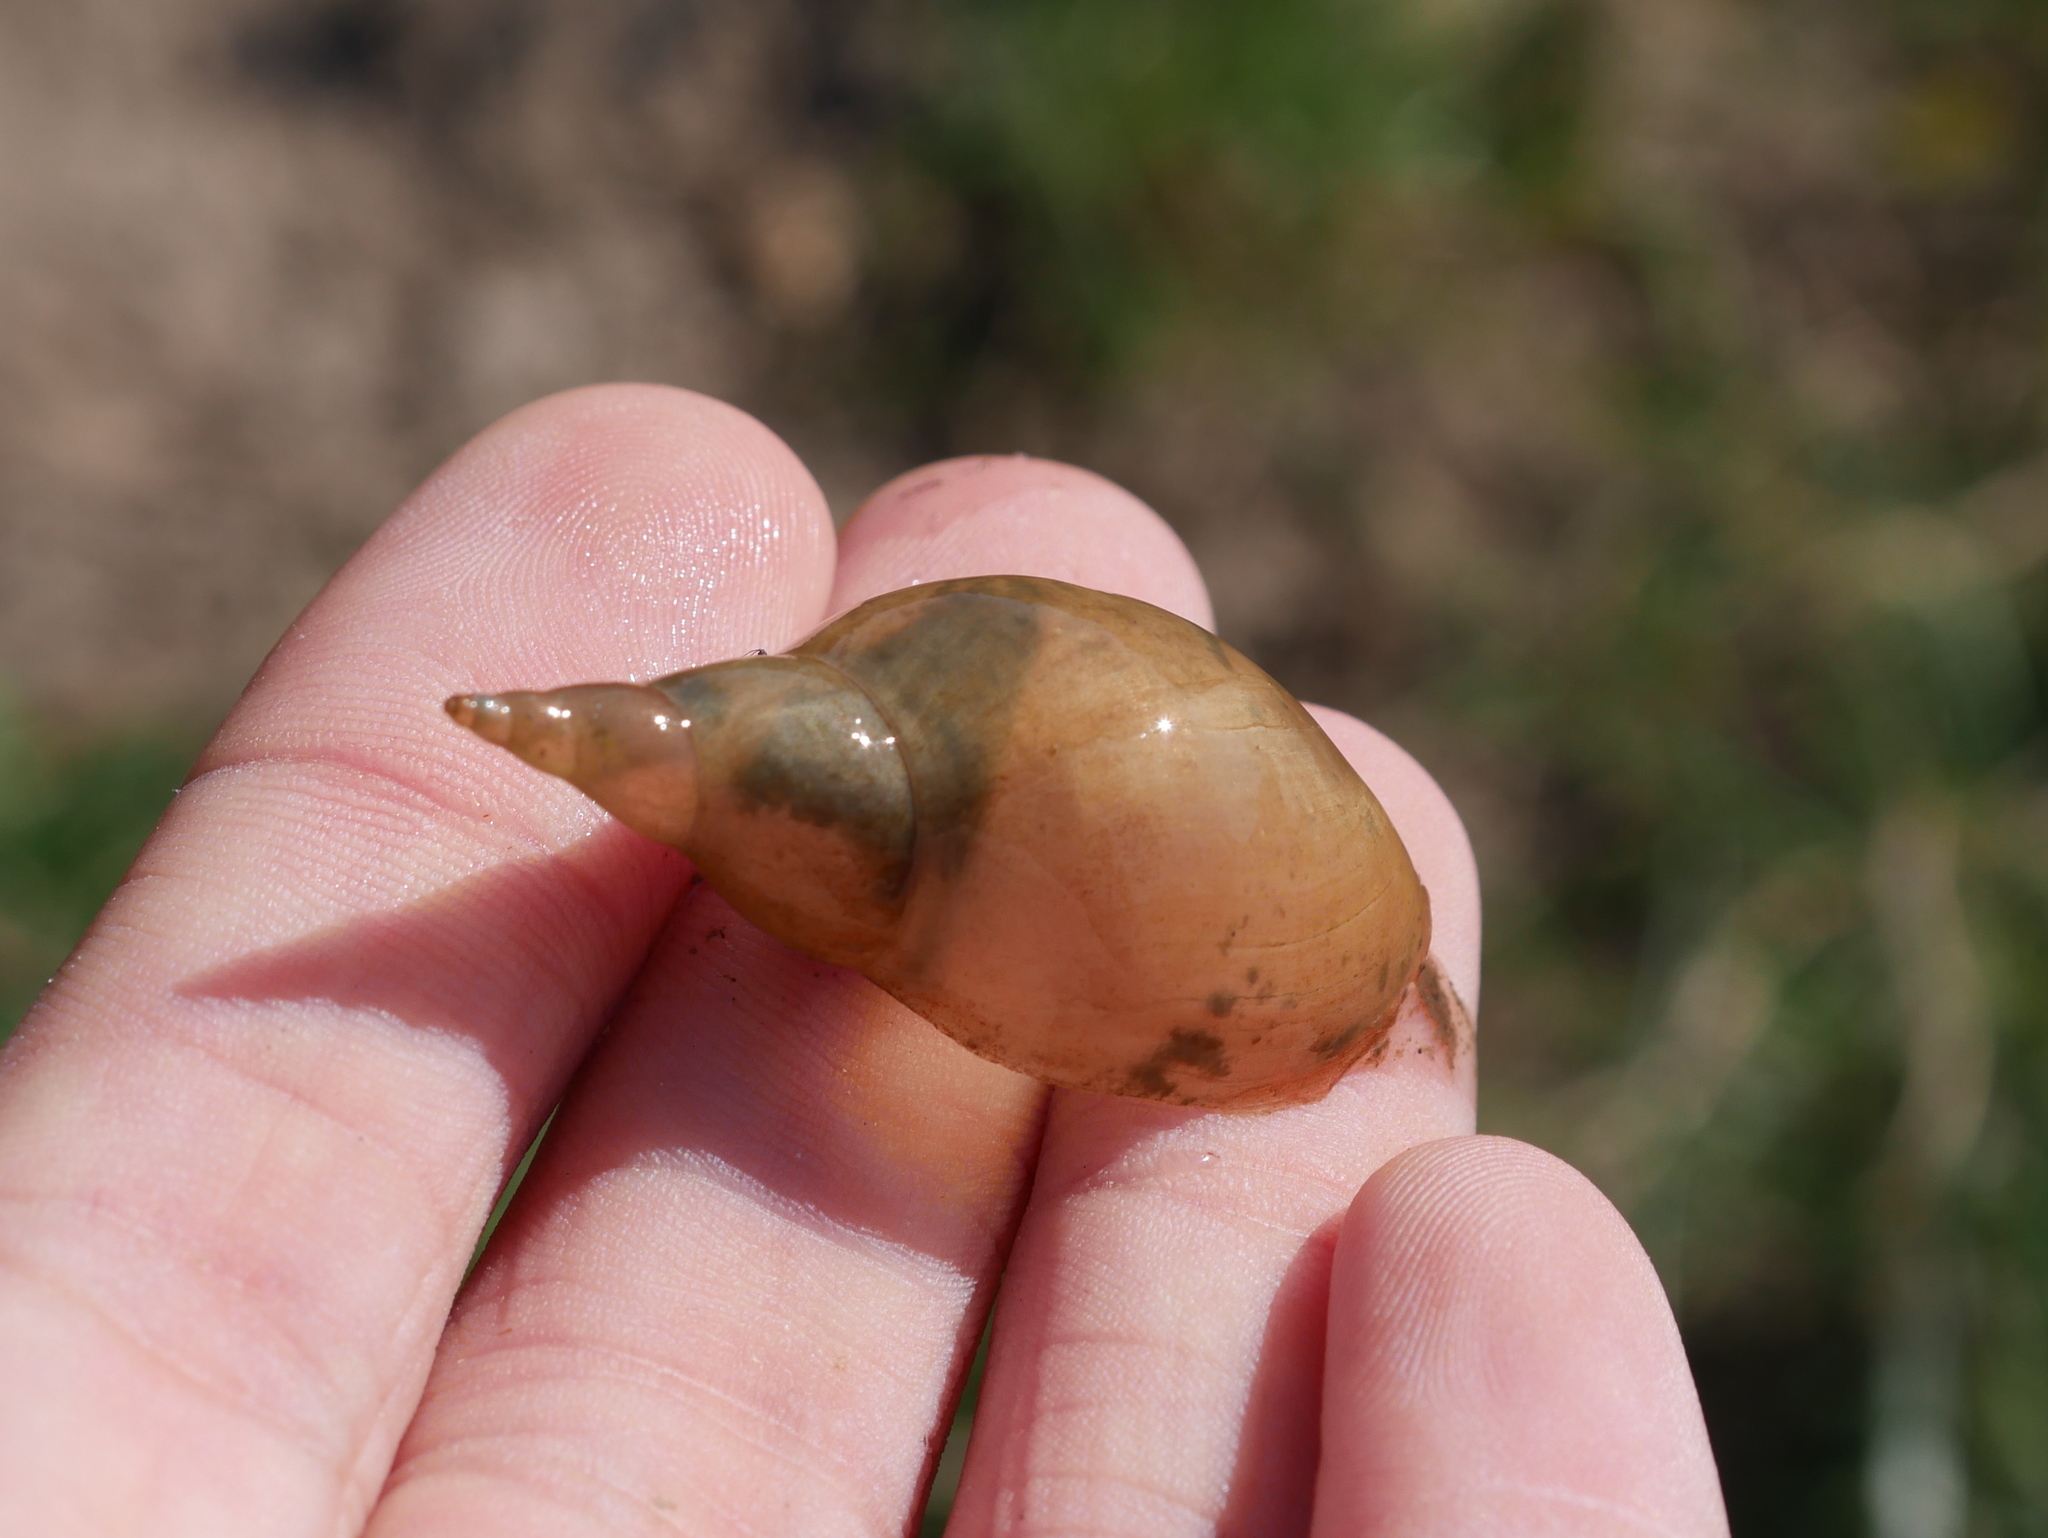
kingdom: Animalia
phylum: Mollusca
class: Gastropoda
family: Lymnaeidae
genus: Lymnaea
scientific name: Lymnaea stagnalis
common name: Great pond snail
